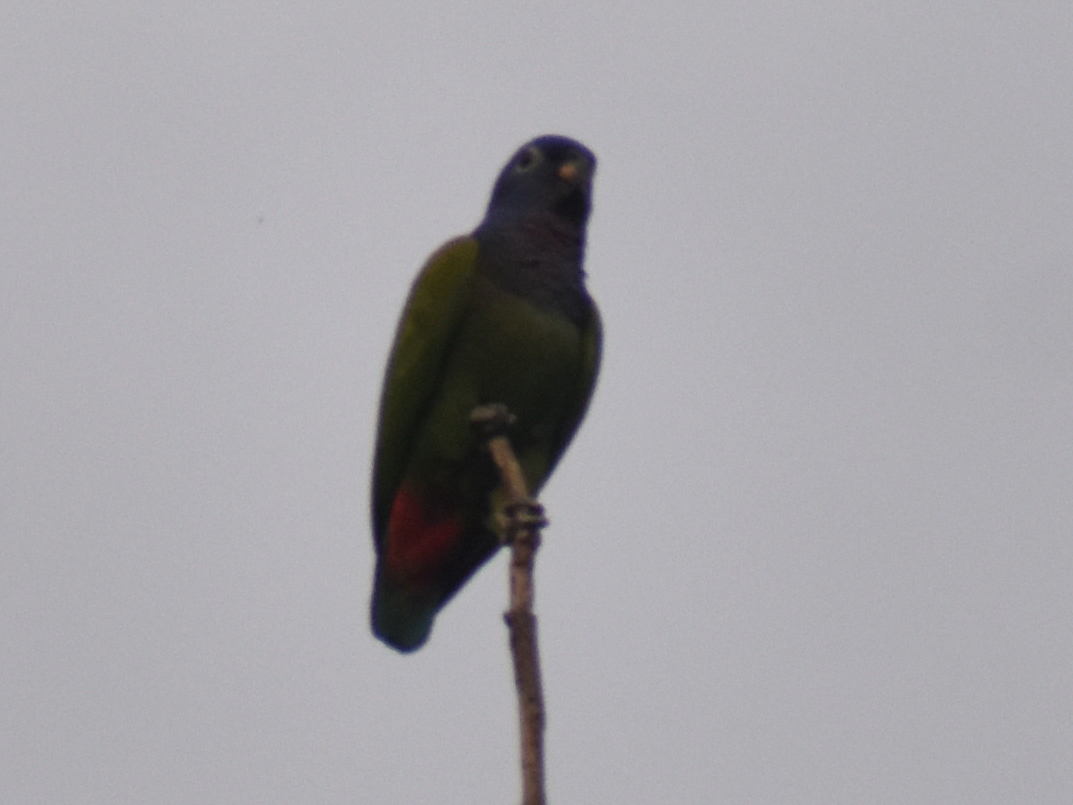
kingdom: Animalia
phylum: Chordata
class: Aves
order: Psittaciformes
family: Psittacidae
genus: Pionus
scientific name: Pionus menstruus
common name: Blue-headed parrot
